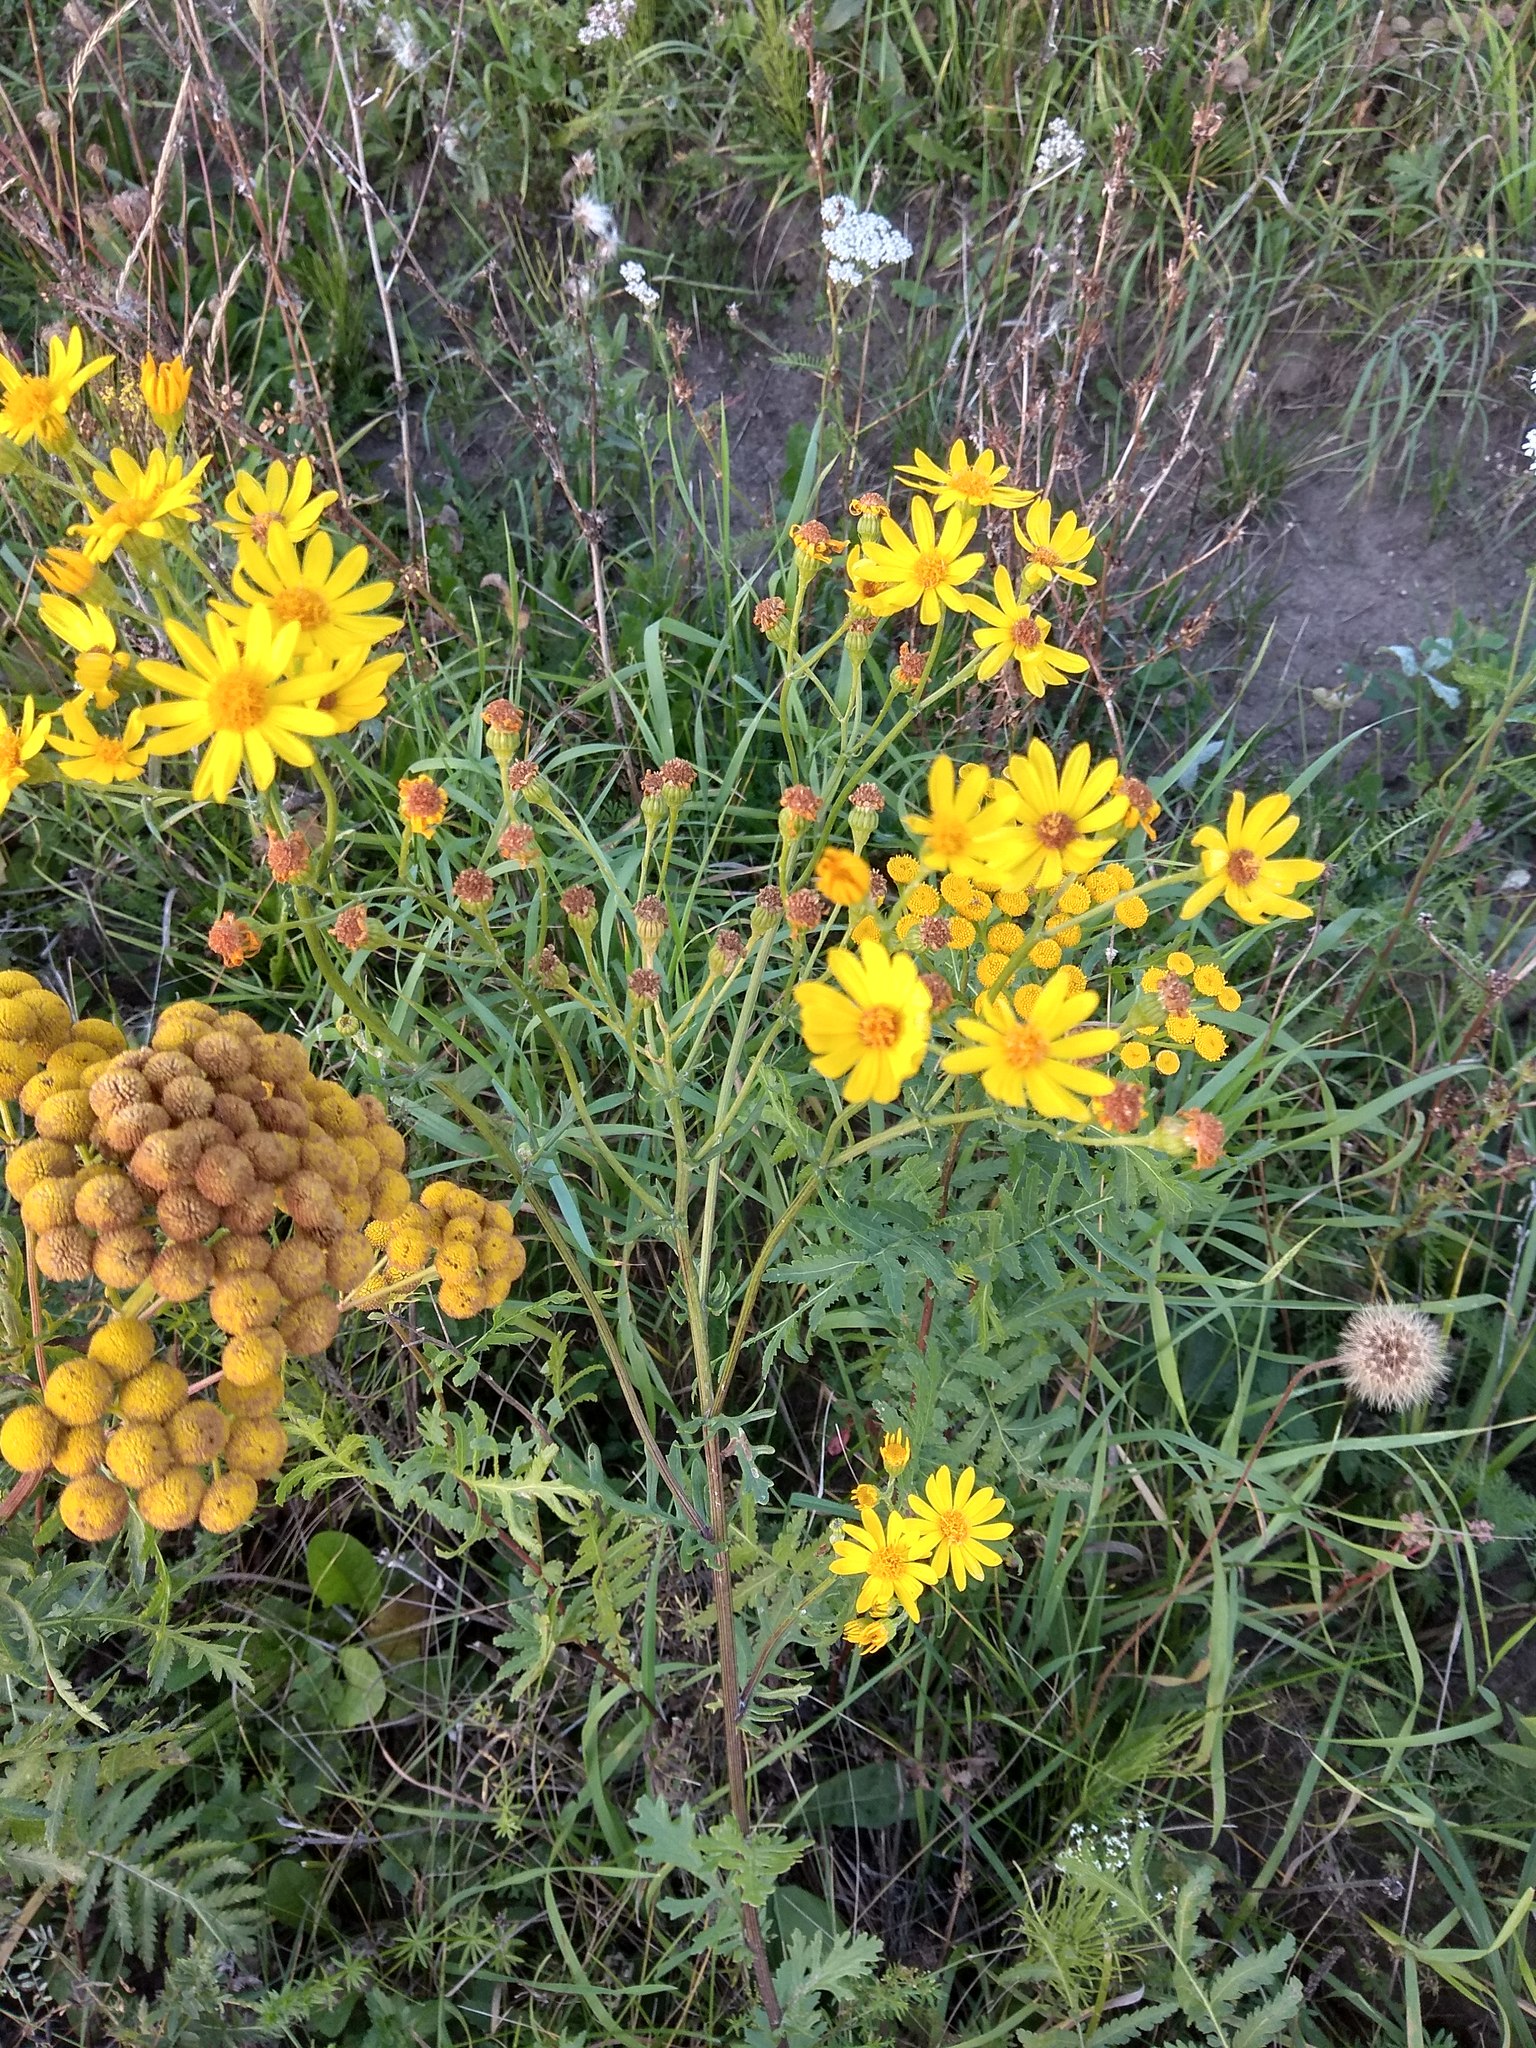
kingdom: Plantae
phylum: Tracheophyta
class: Magnoliopsida
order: Asterales
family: Asteraceae
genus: Jacobaea
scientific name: Jacobaea vulgaris
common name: Stinking willie
